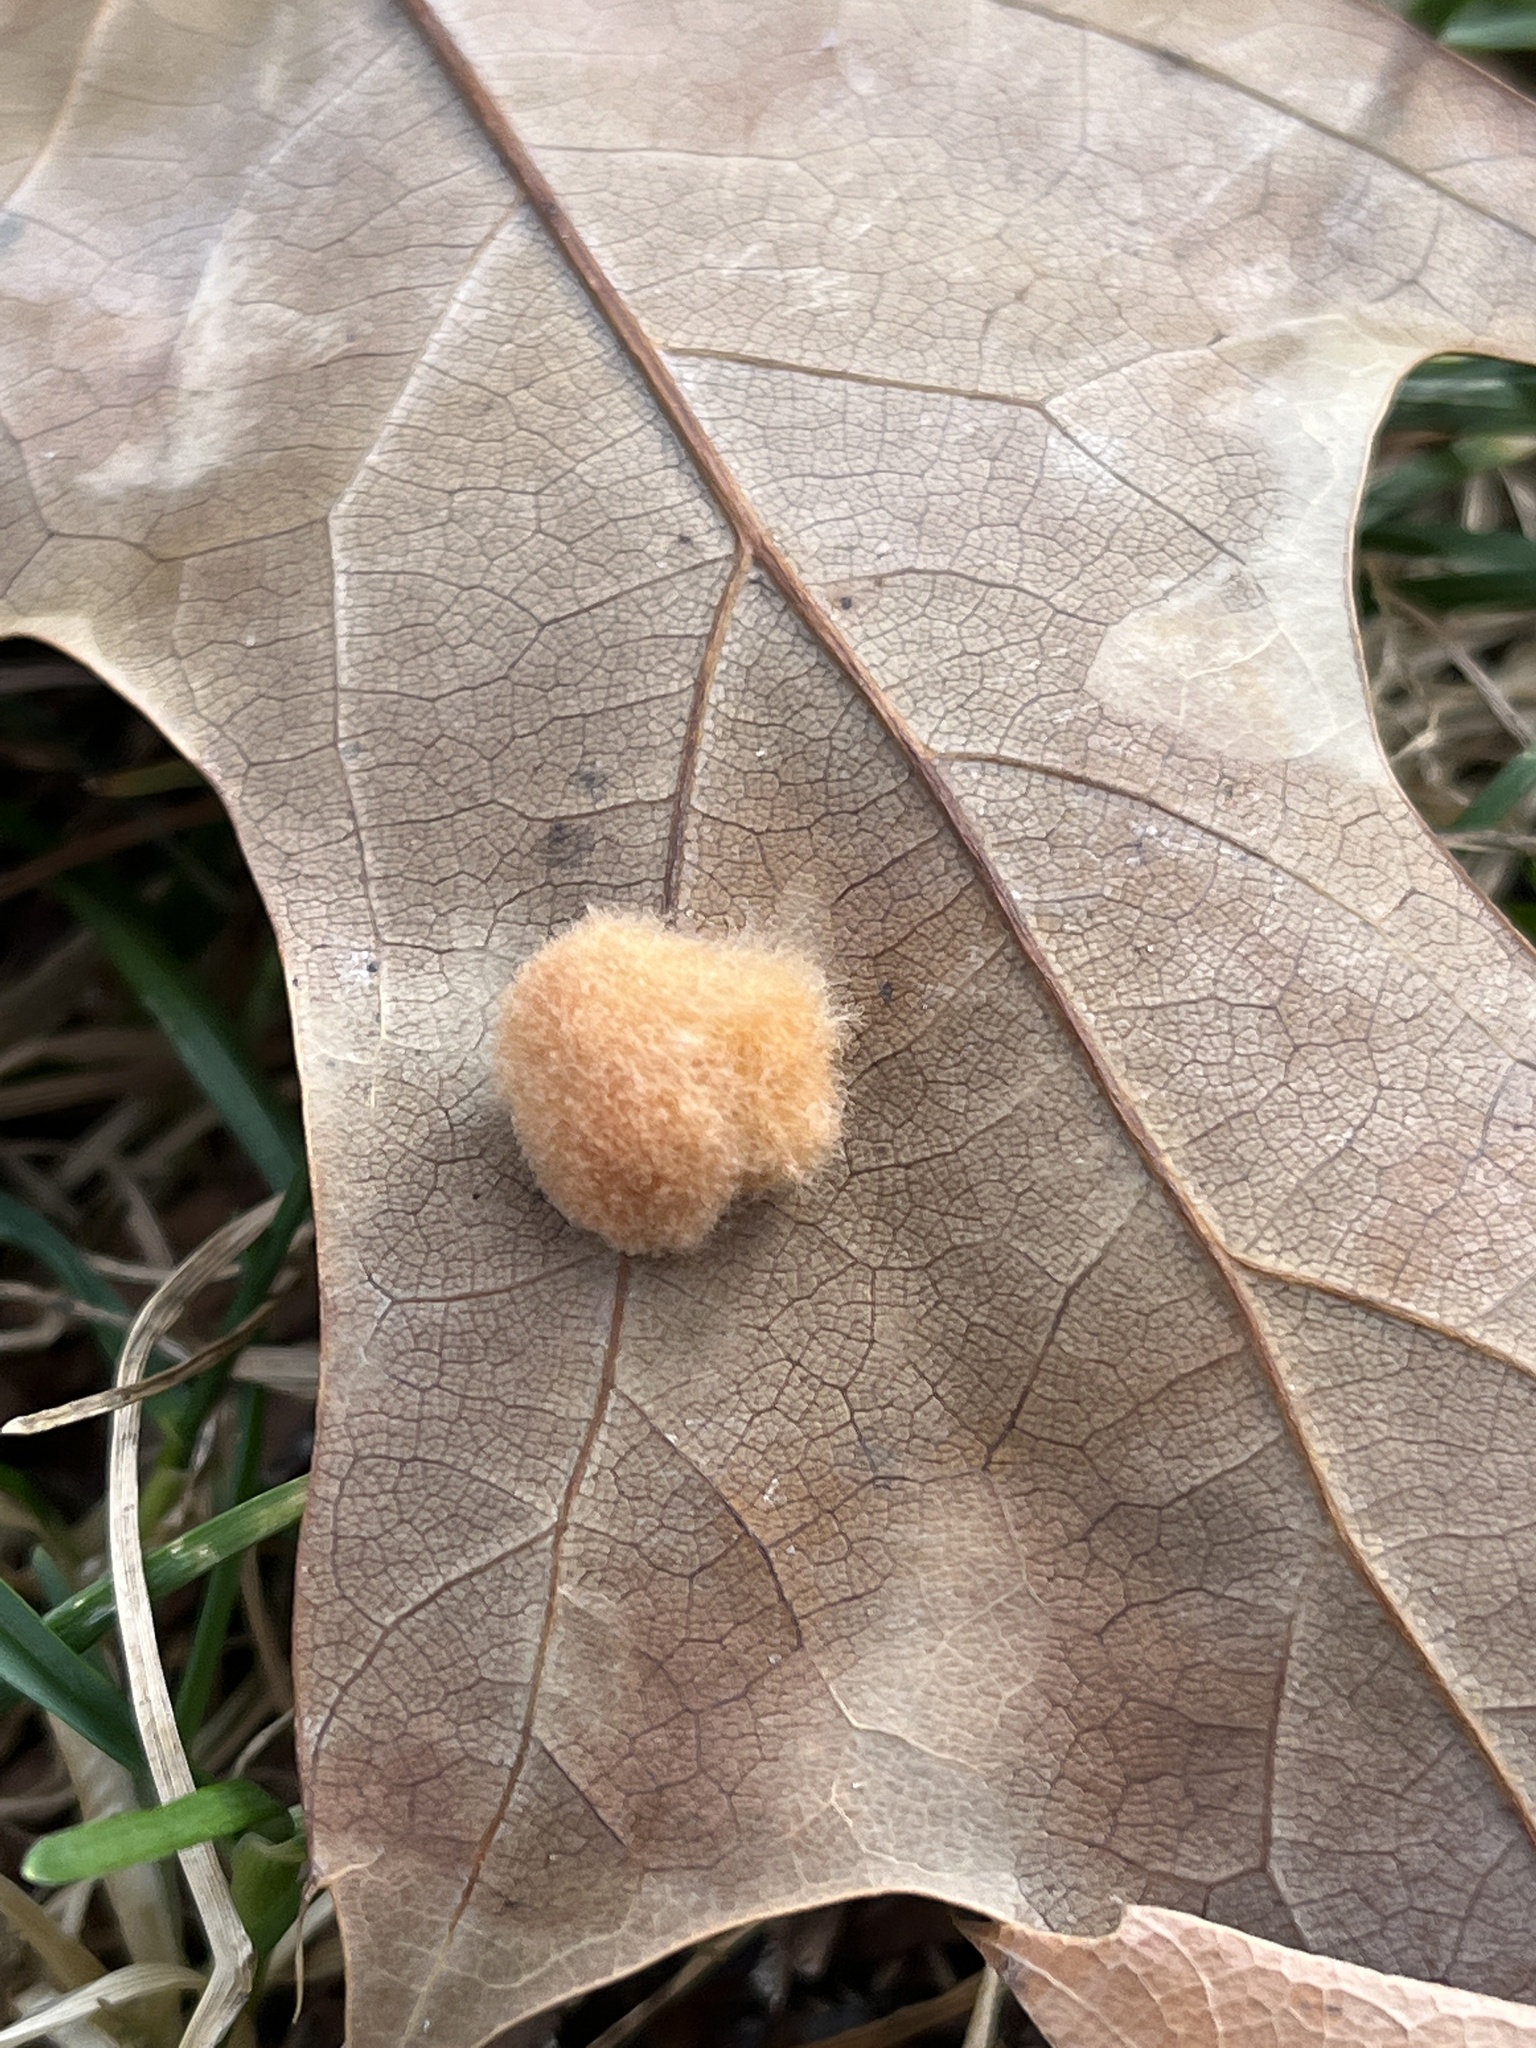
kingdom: Animalia
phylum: Arthropoda
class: Insecta
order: Hymenoptera
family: Cynipidae
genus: Callirhytis
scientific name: Callirhytis
